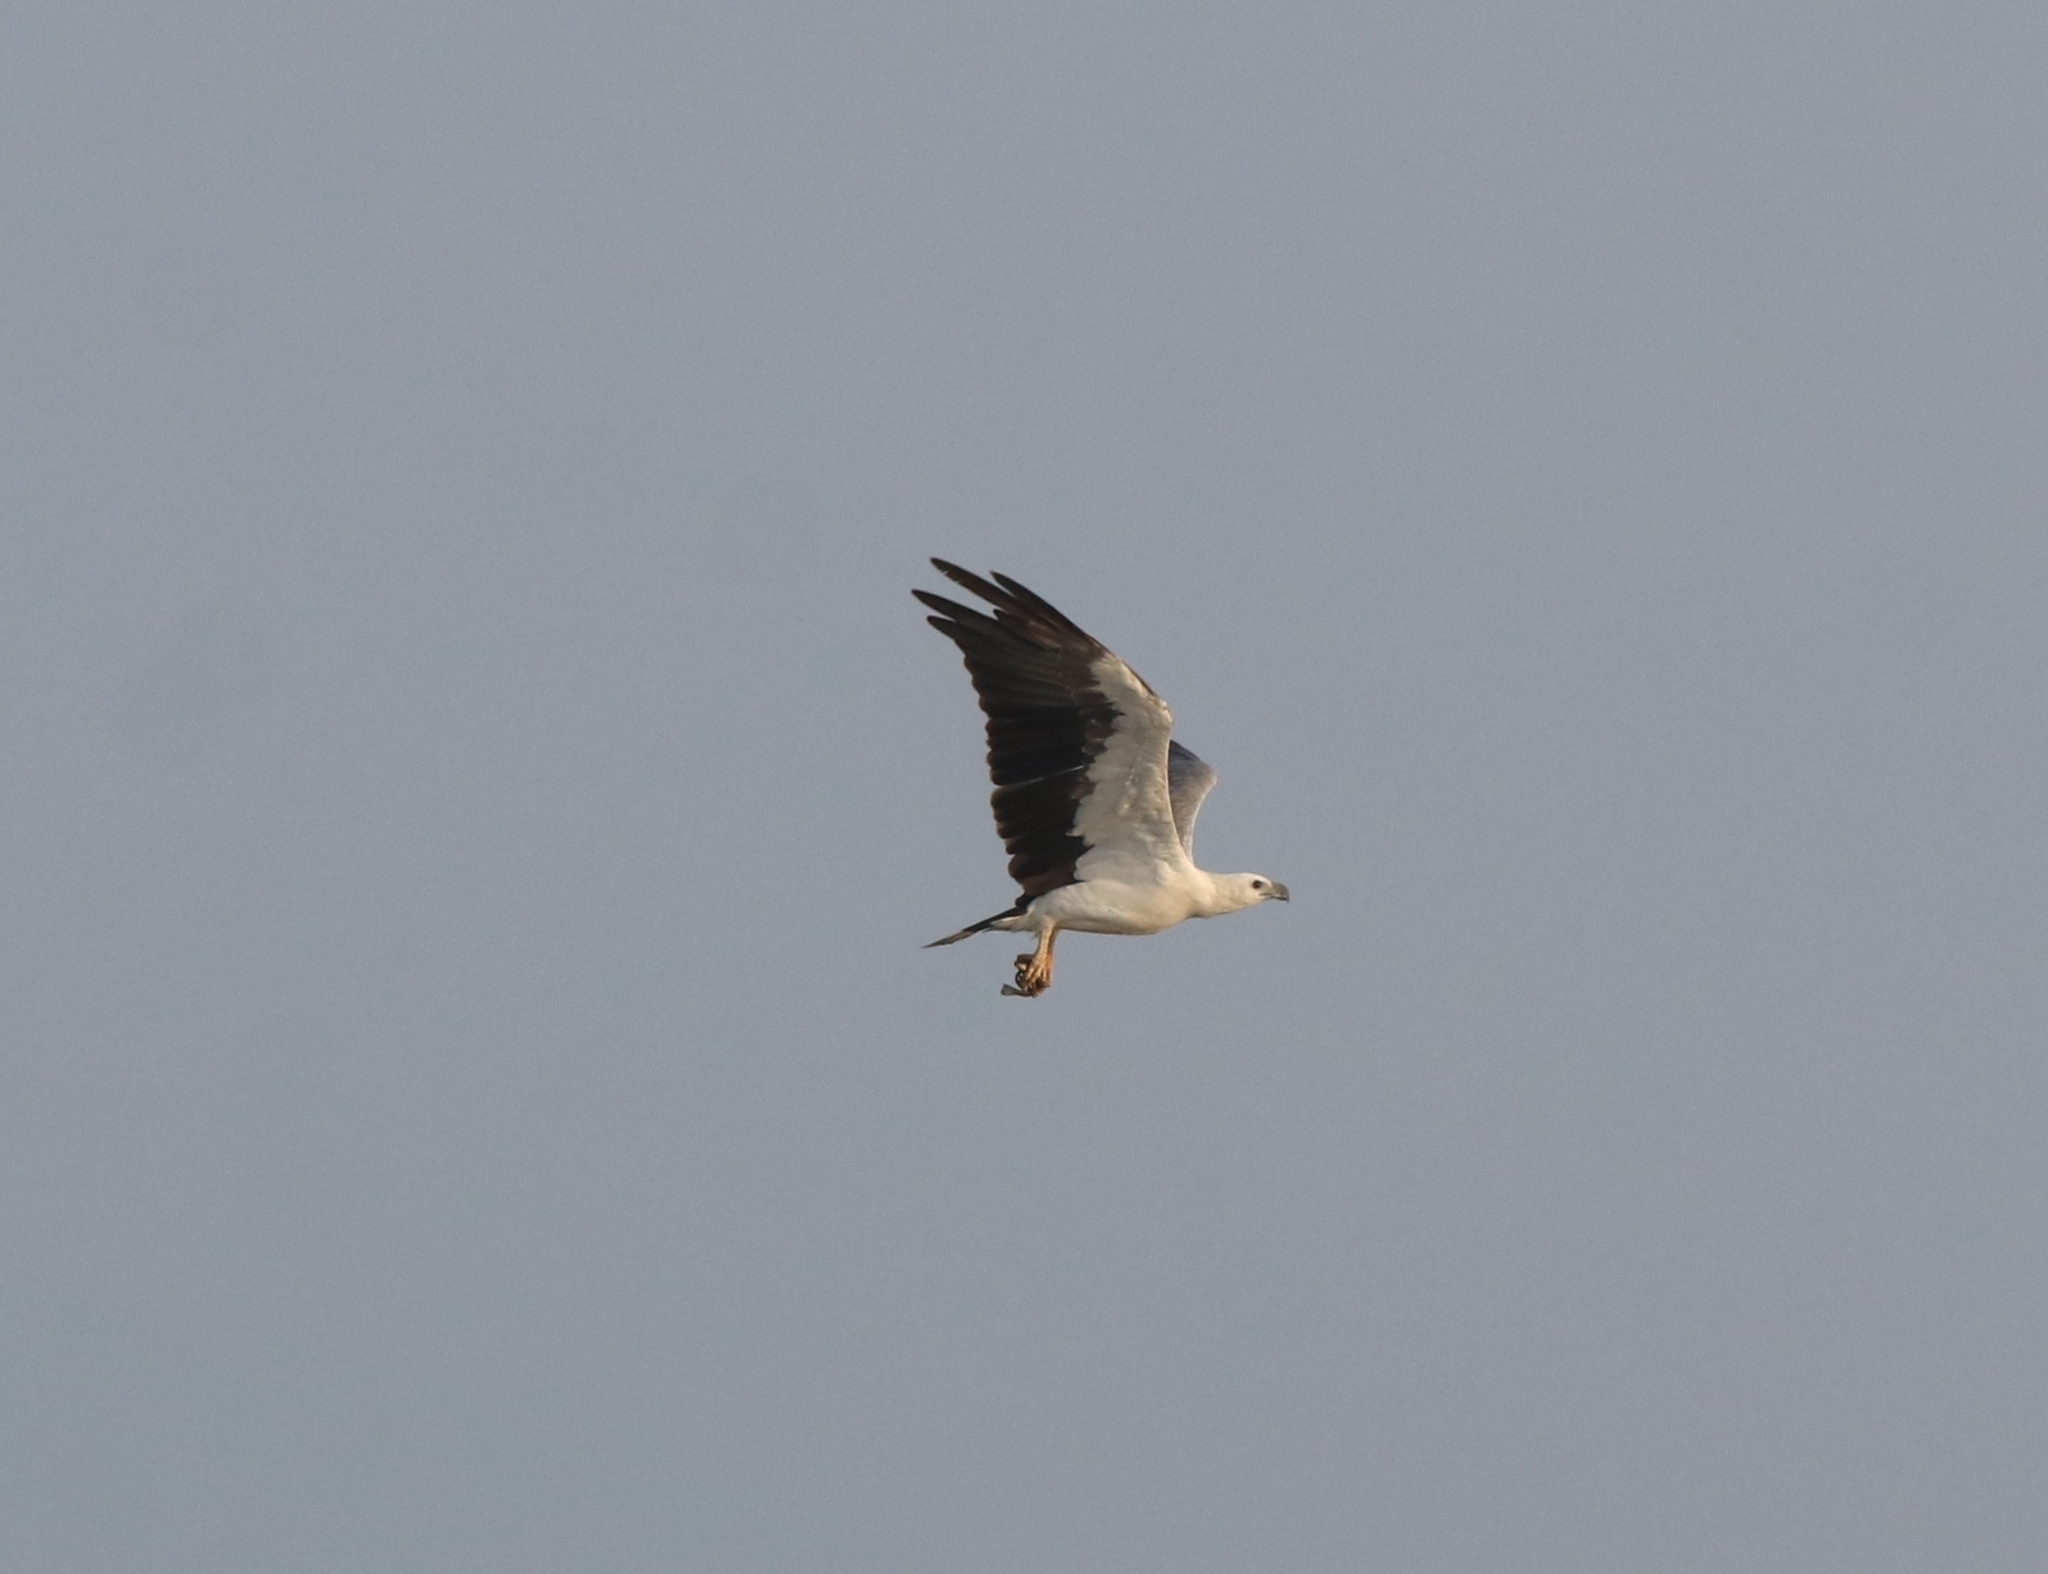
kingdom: Animalia
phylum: Chordata
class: Aves
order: Accipitriformes
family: Accipitridae
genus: Haliaeetus
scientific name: Haliaeetus leucogaster
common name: White-bellied sea eagle
